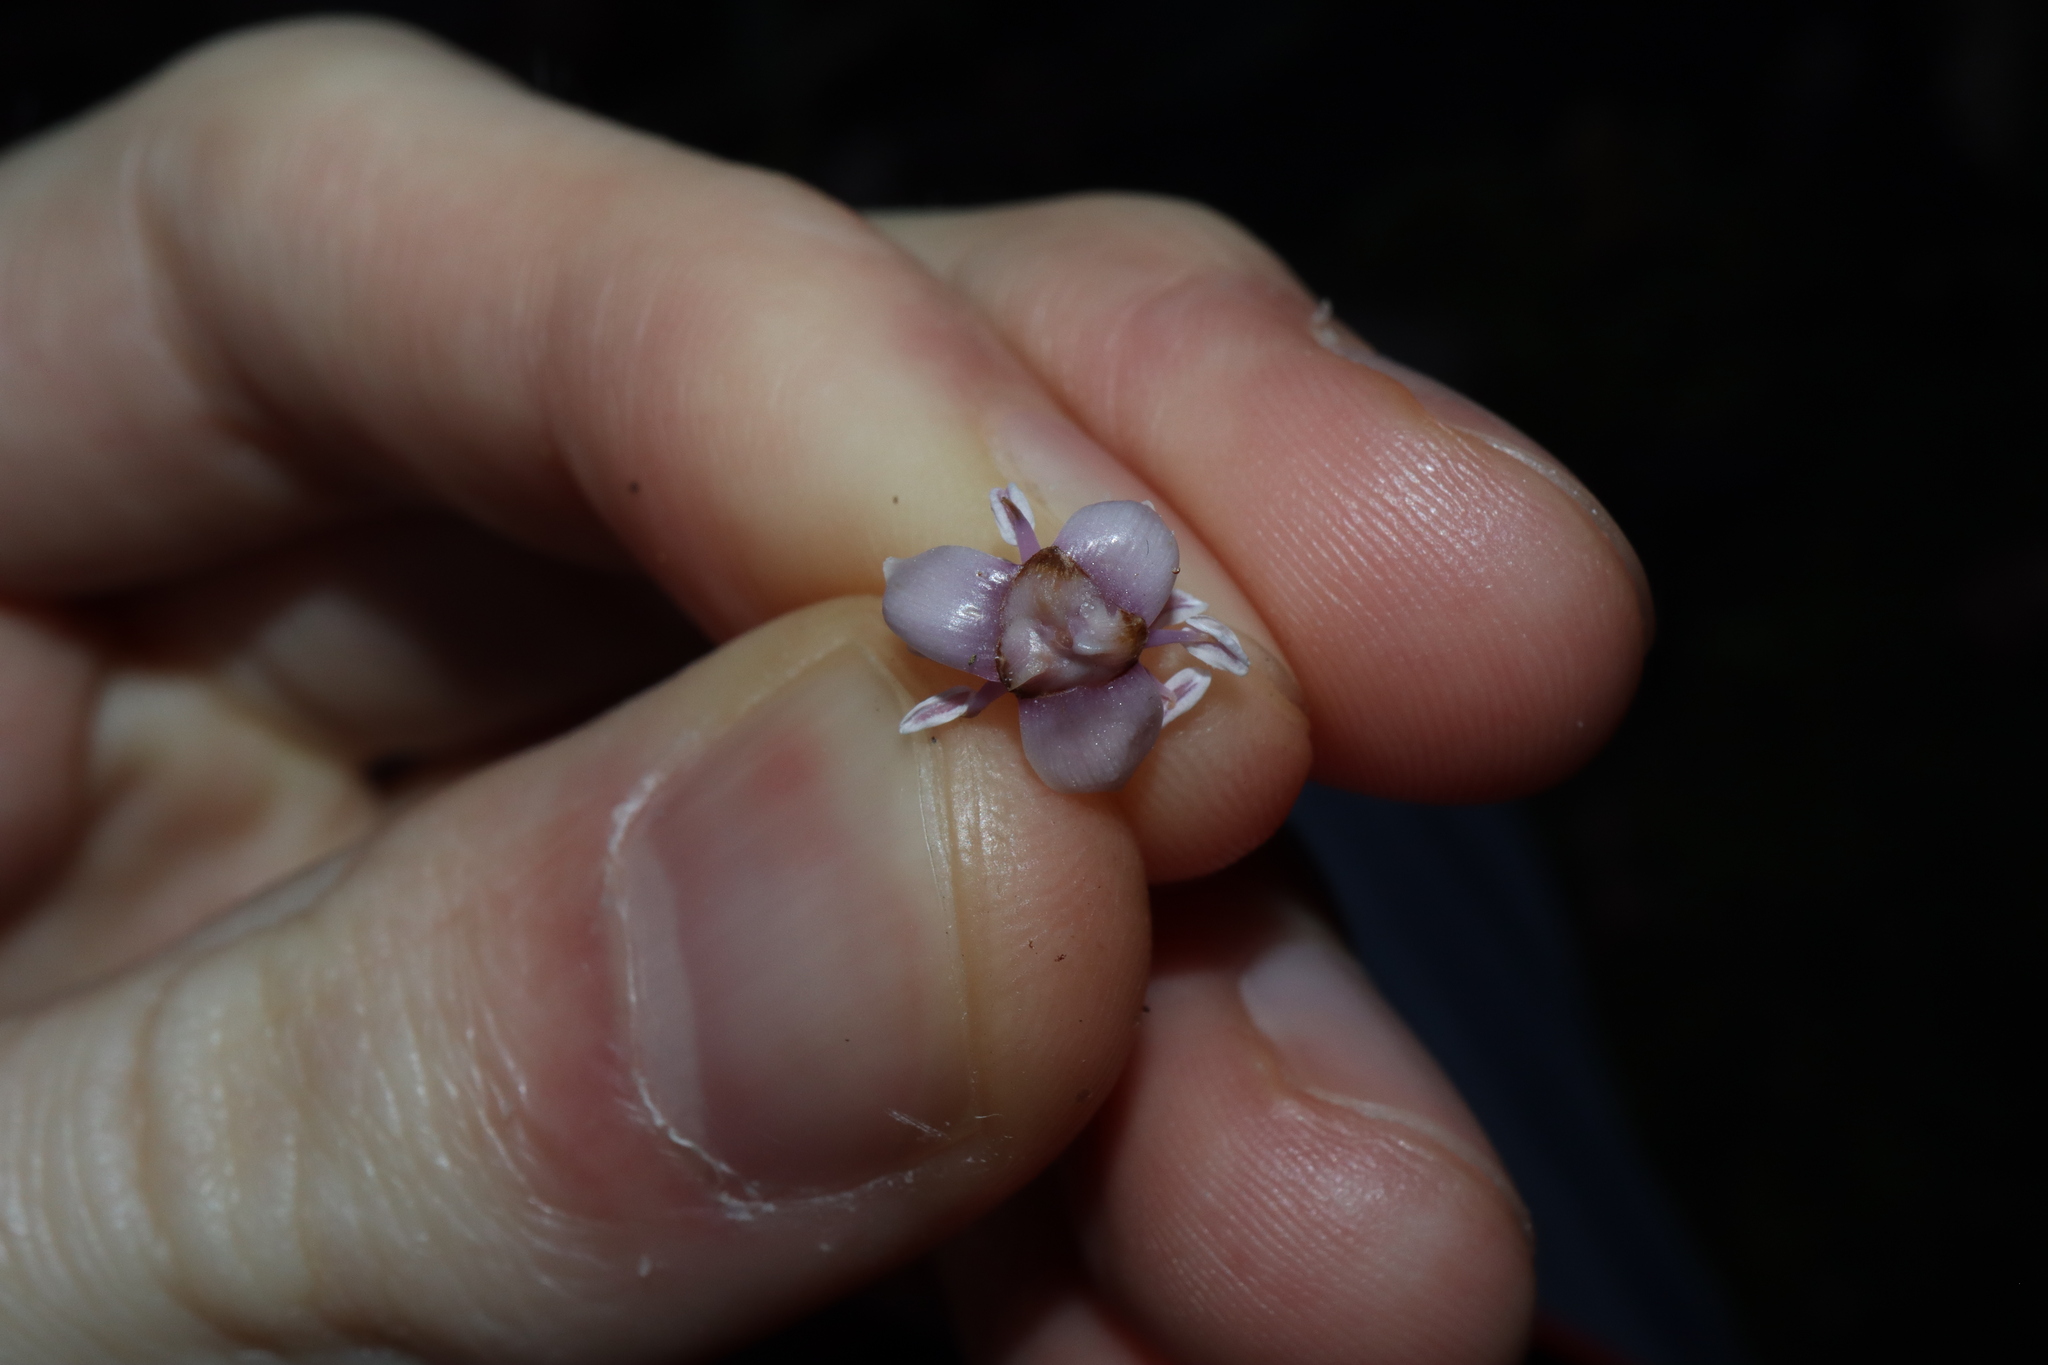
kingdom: Plantae
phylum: Tracheophyta
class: Liliopsida
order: Arecales
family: Arecaceae
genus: Archontophoenix
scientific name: Archontophoenix cunninghamiana
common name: Piccabeen bangalow palm
